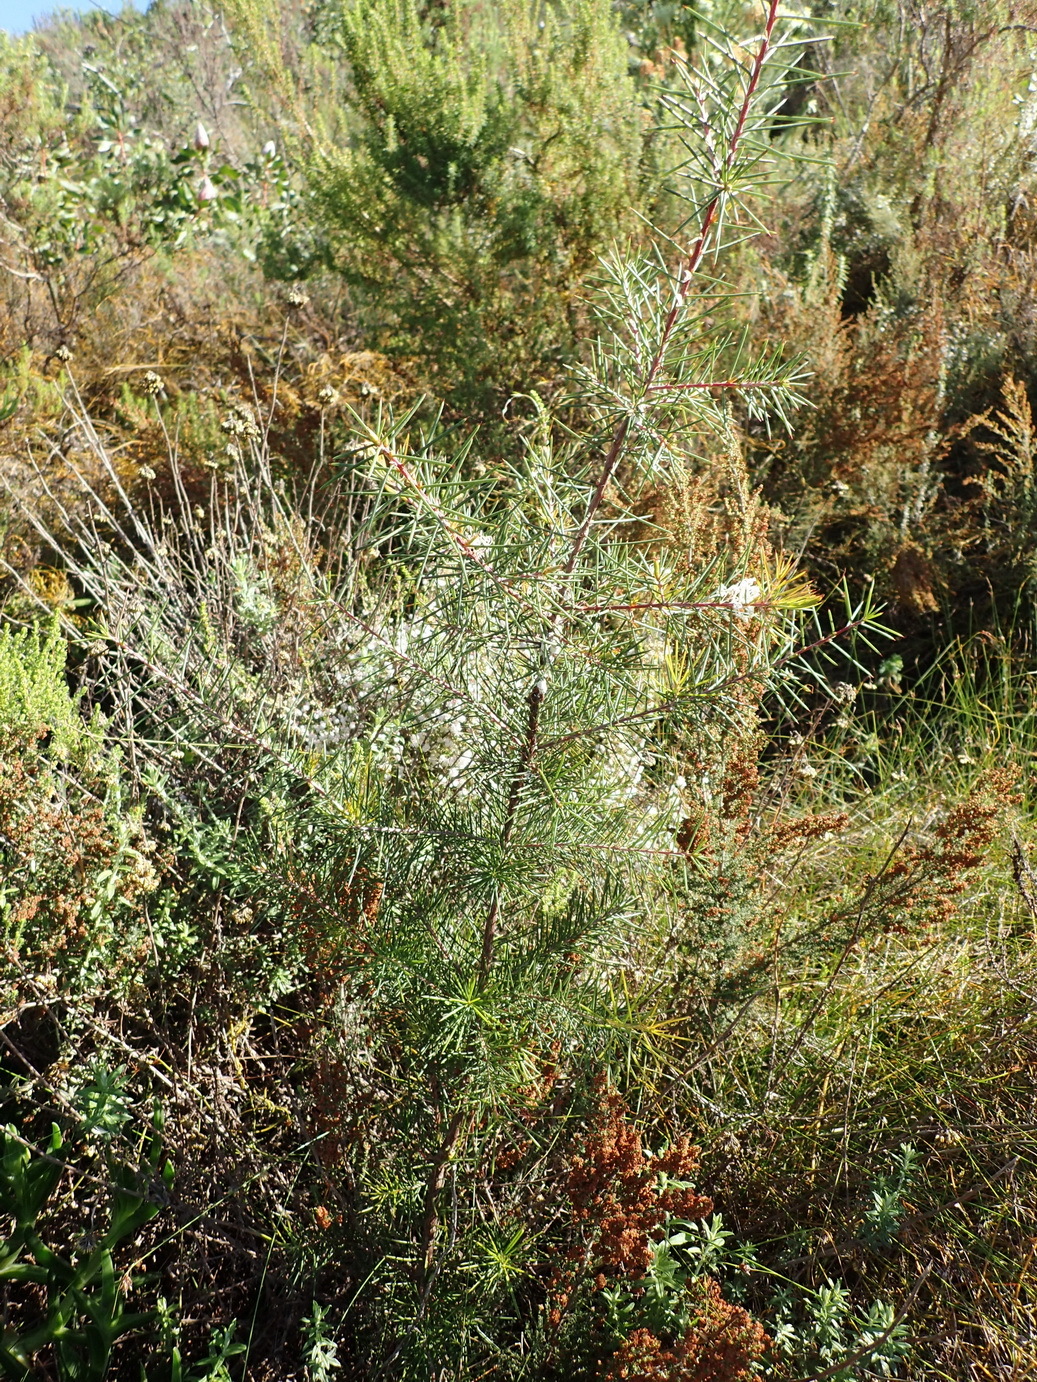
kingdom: Plantae
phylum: Tracheophyta
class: Magnoliopsida
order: Proteales
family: Proteaceae
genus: Hakea
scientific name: Hakea sericea
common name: Needle bush
